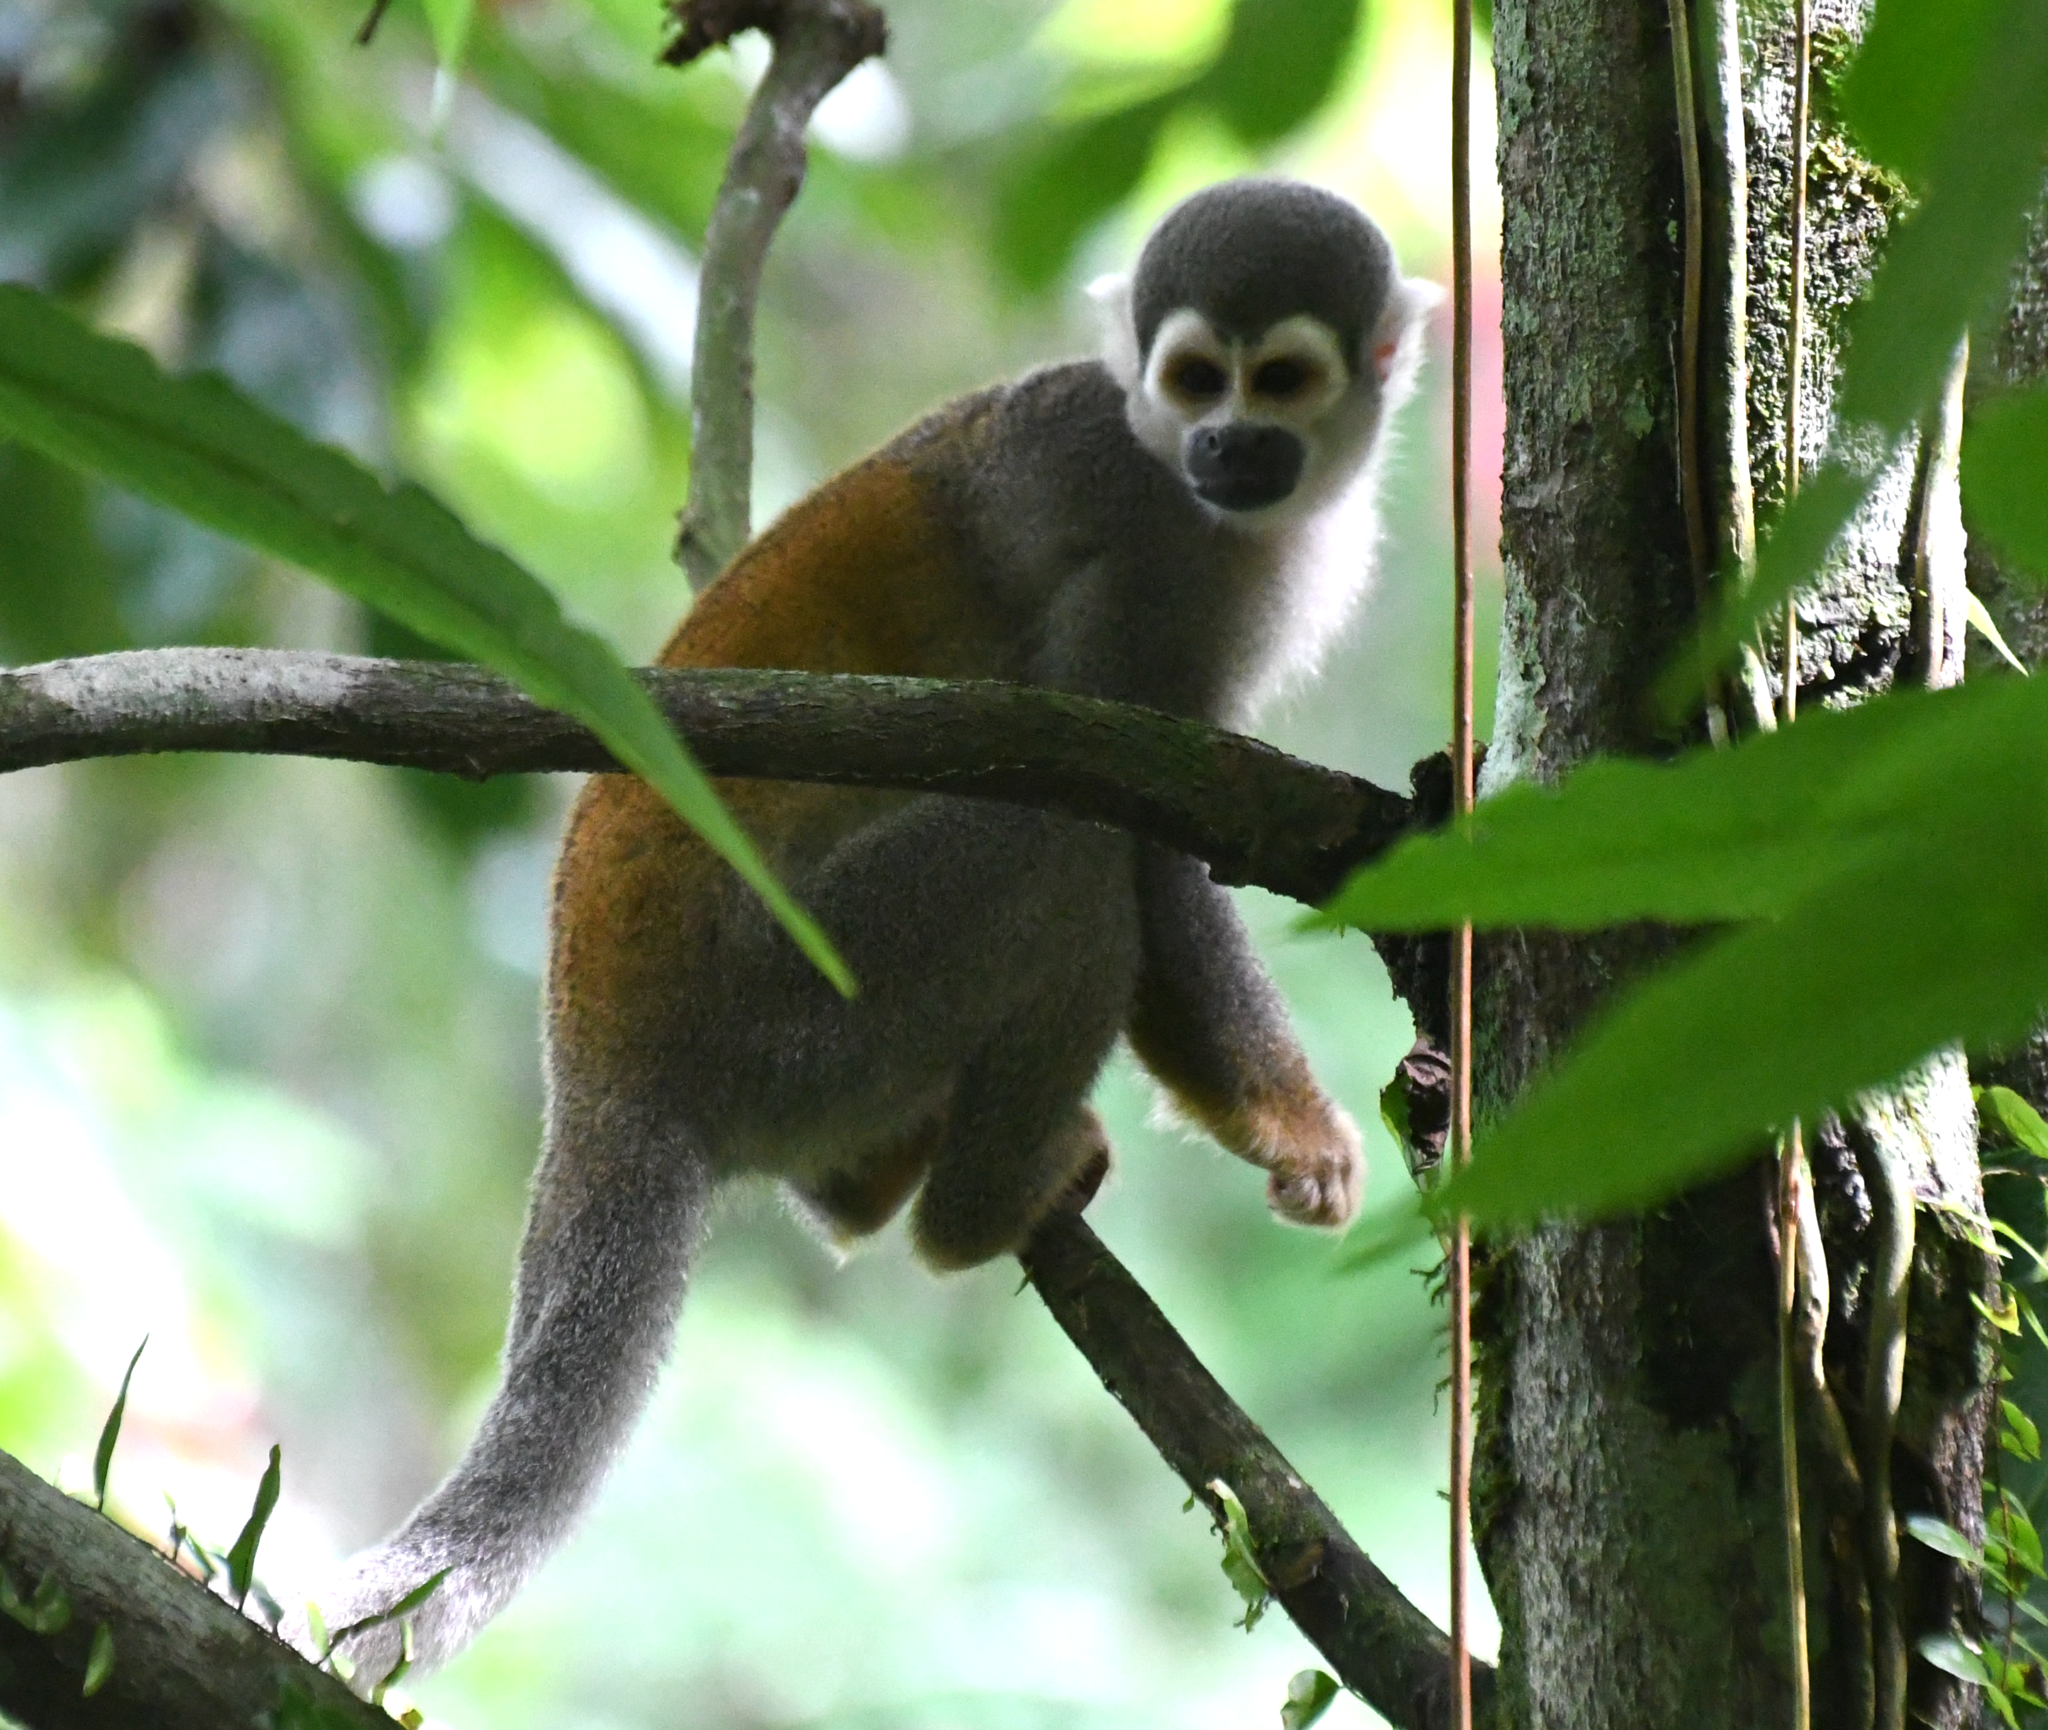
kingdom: Animalia
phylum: Chordata
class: Mammalia
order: Primates
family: Cebidae
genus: Saimiri
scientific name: Saimiri cassiquiarensis
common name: Humboldt’s squirrel monkey
